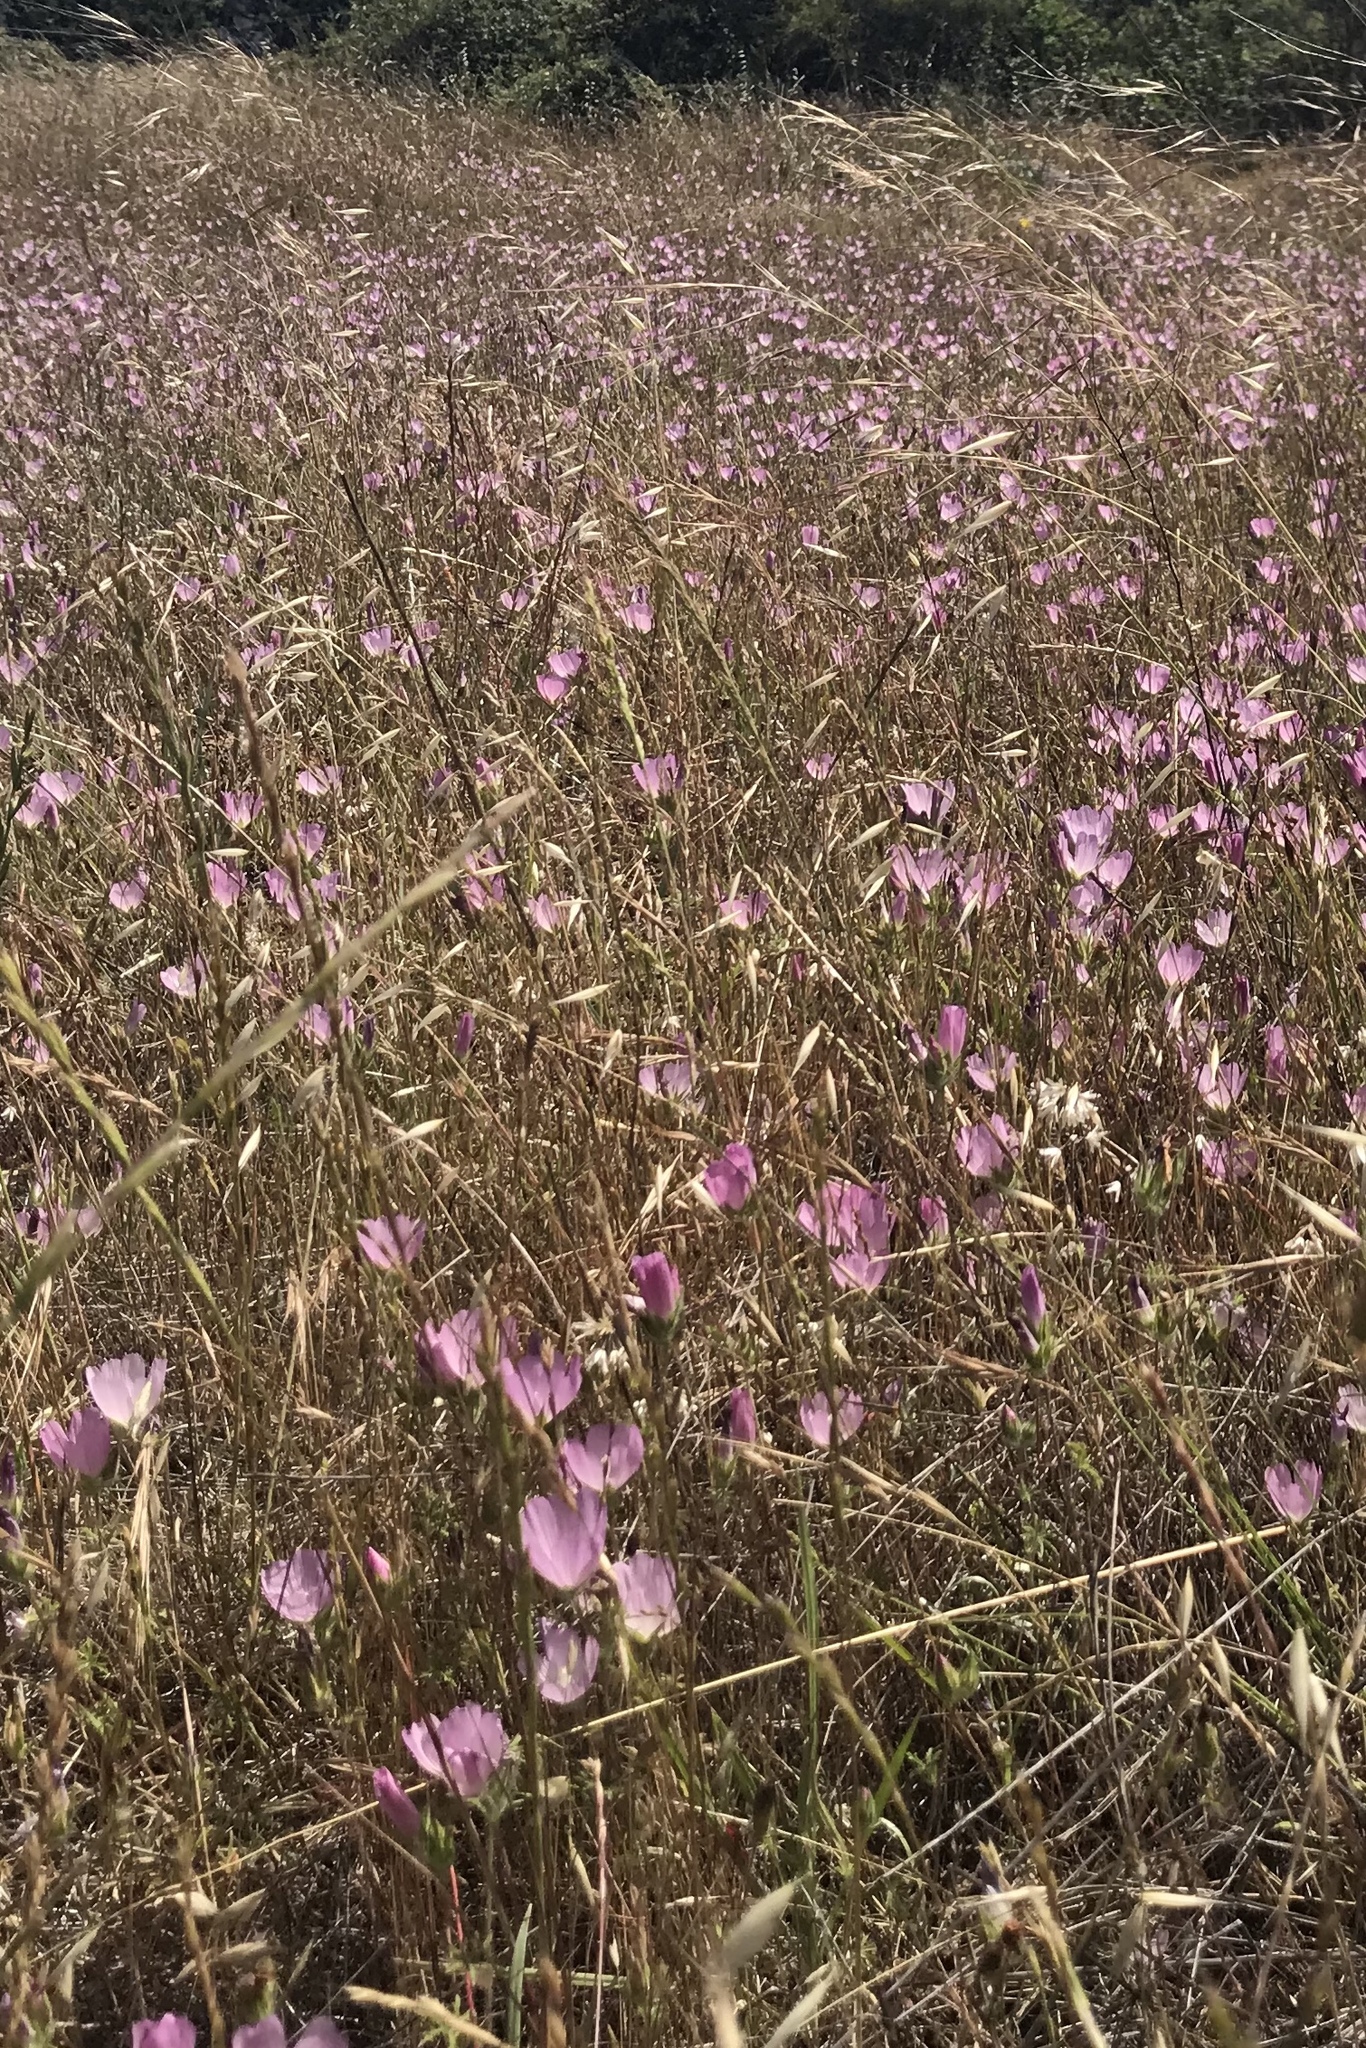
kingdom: Plantae
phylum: Tracheophyta
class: Magnoliopsida
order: Malvales
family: Malvaceae
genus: Sidalcea
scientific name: Sidalcea diploscypha
